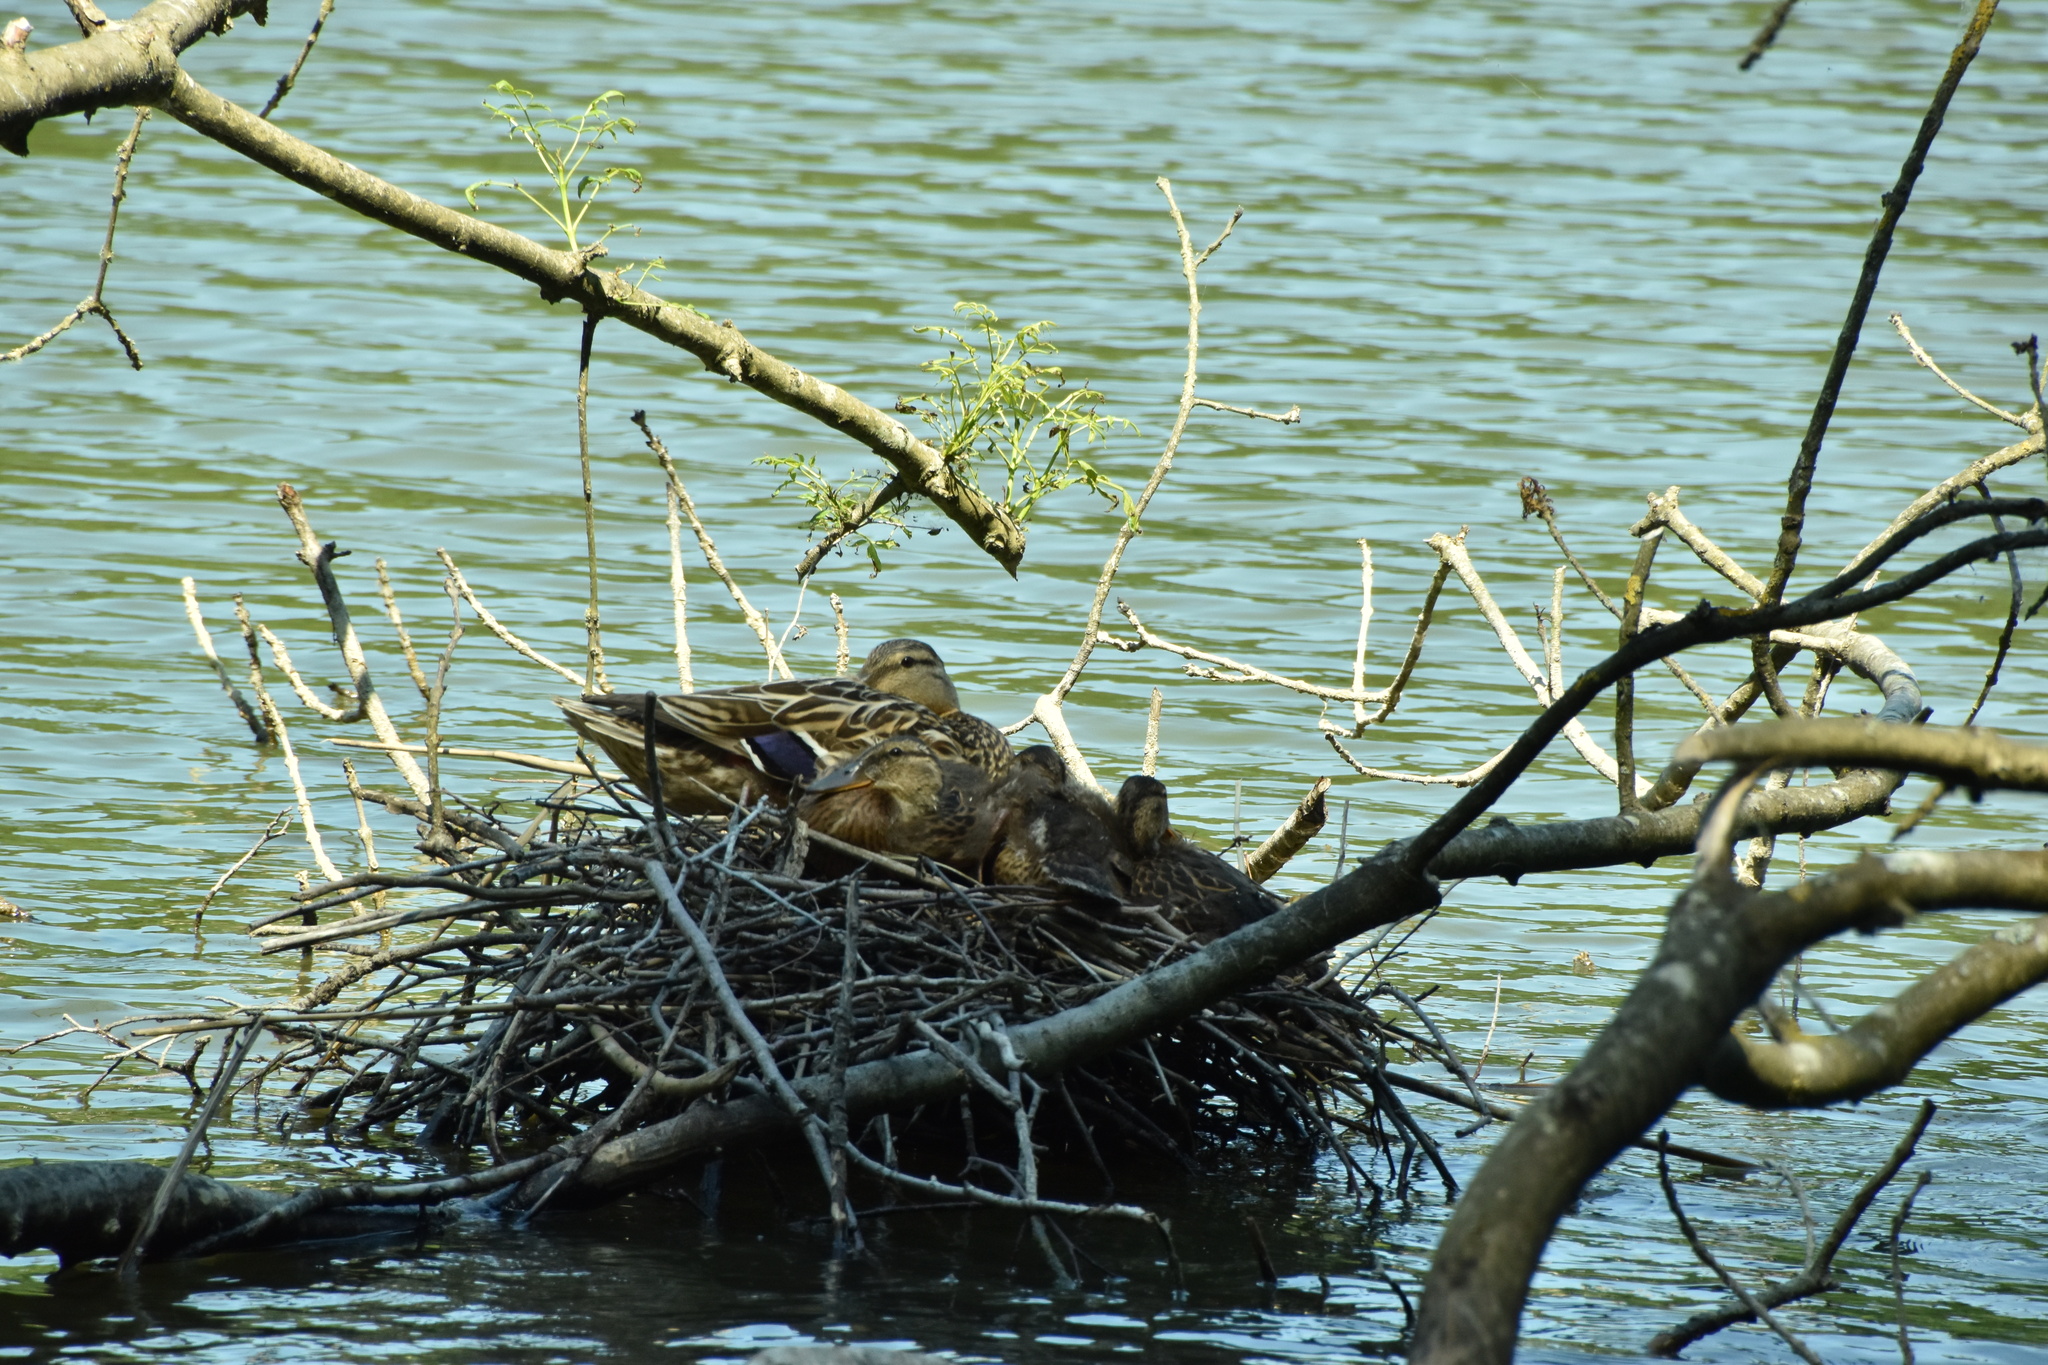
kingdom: Animalia
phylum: Chordata
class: Aves
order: Anseriformes
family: Anatidae
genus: Anas
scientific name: Anas platyrhynchos
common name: Mallard
